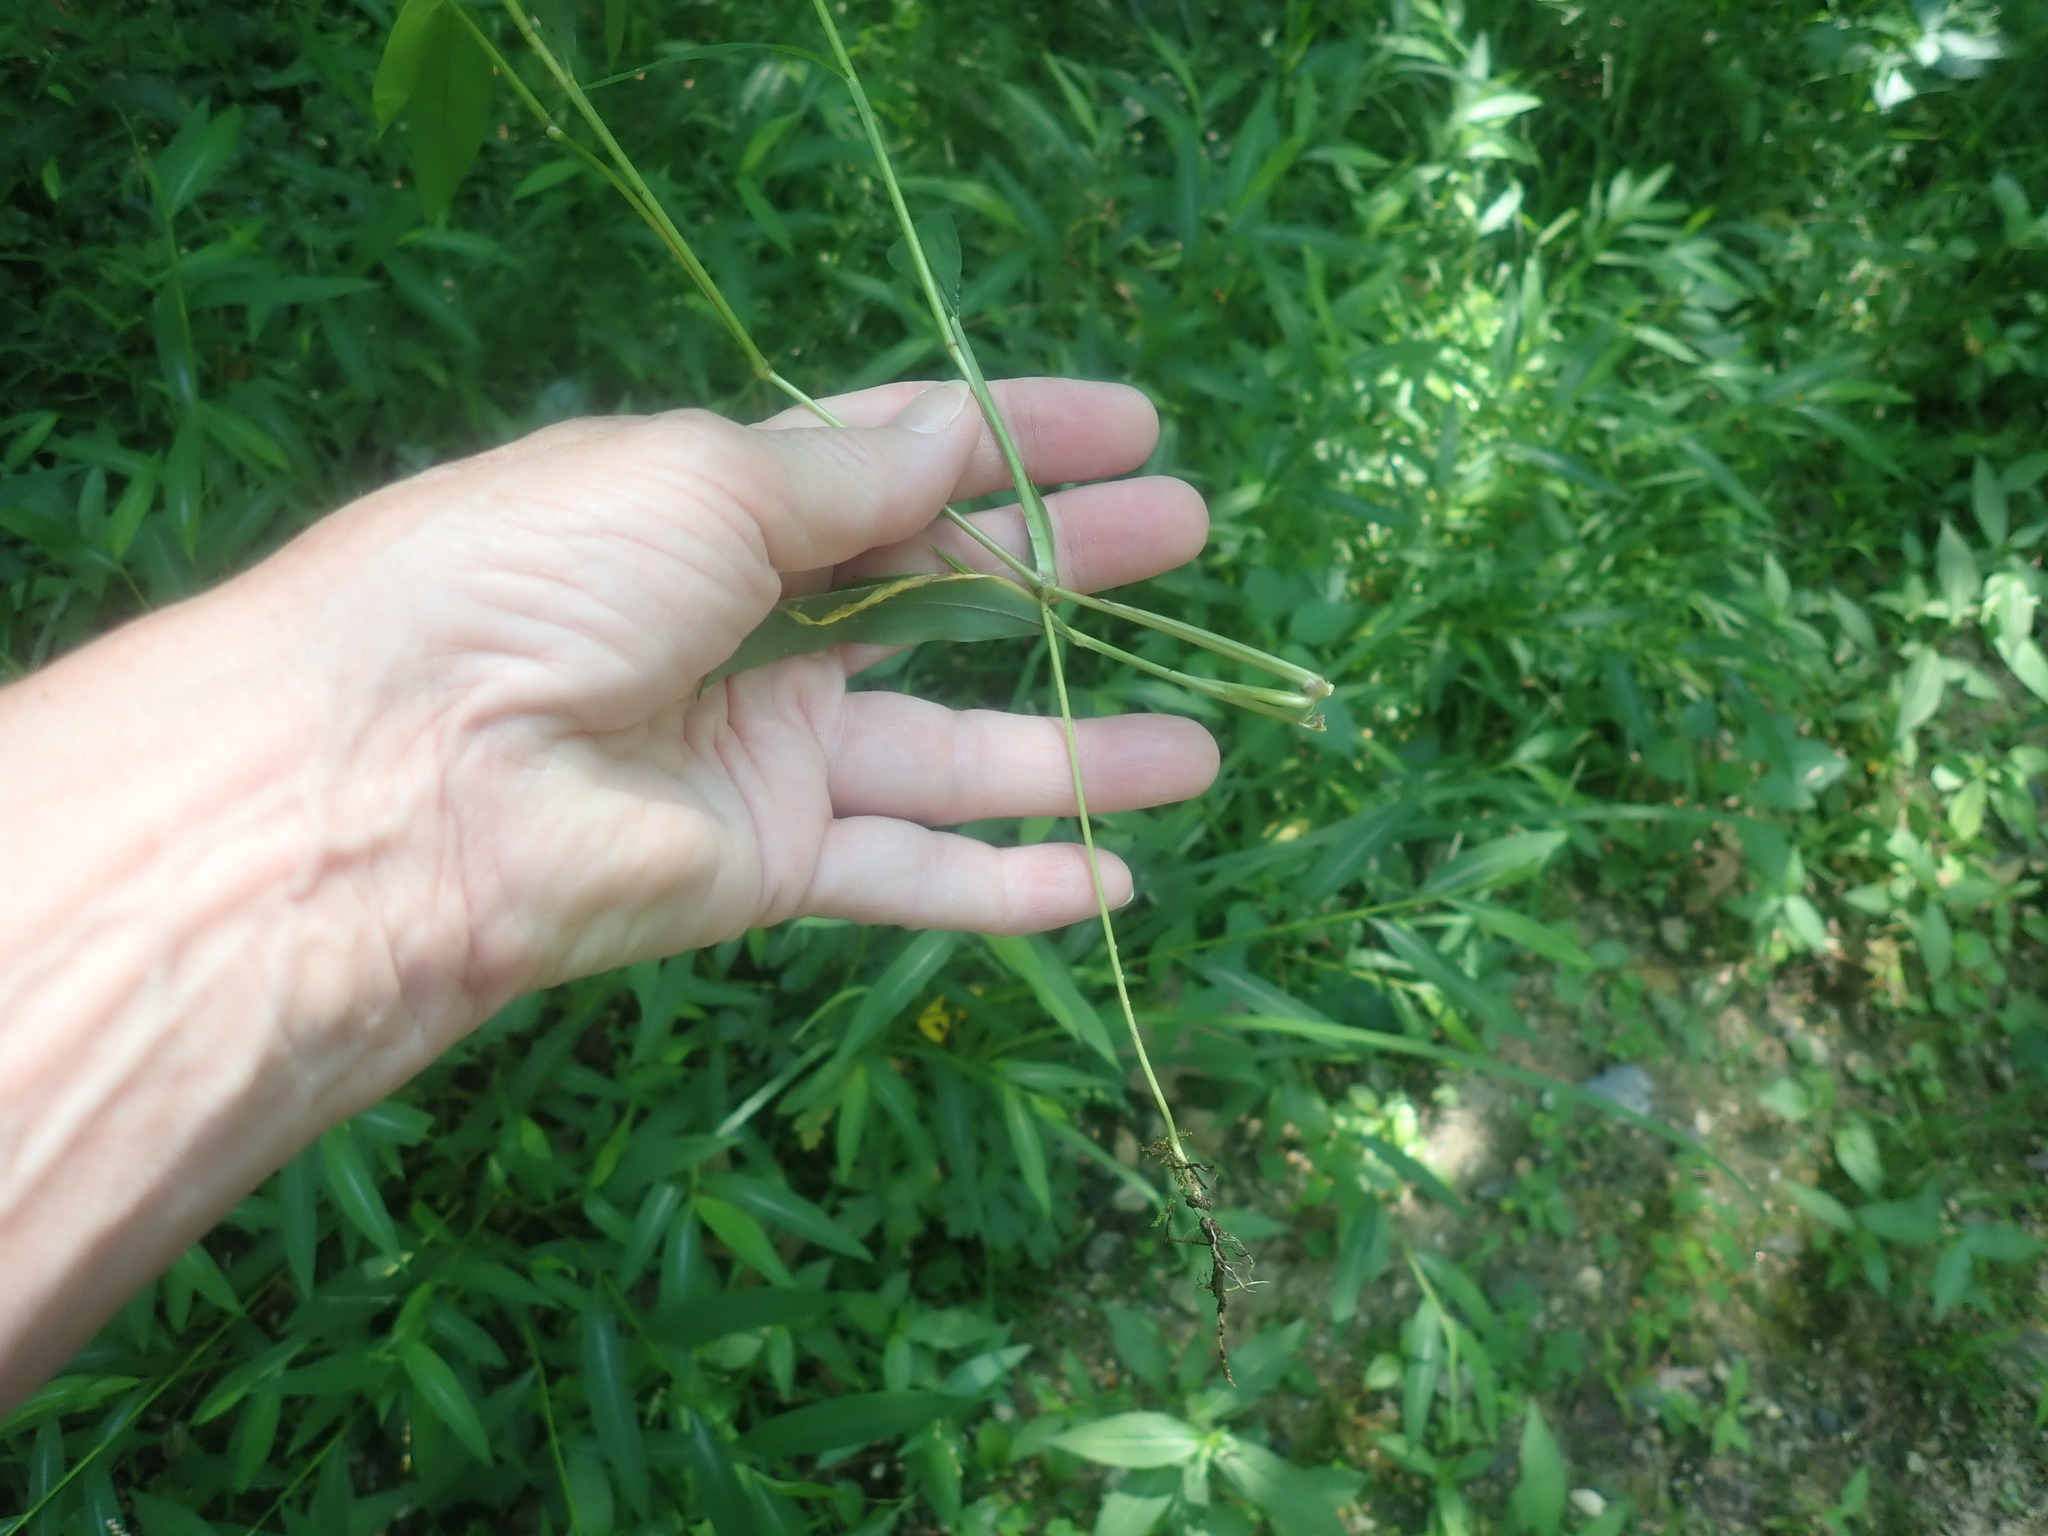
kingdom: Plantae
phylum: Tracheophyta
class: Liliopsida
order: Poales
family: Poaceae
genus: Microstegium
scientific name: Microstegium vimineum
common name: Japanese stiltgrass
